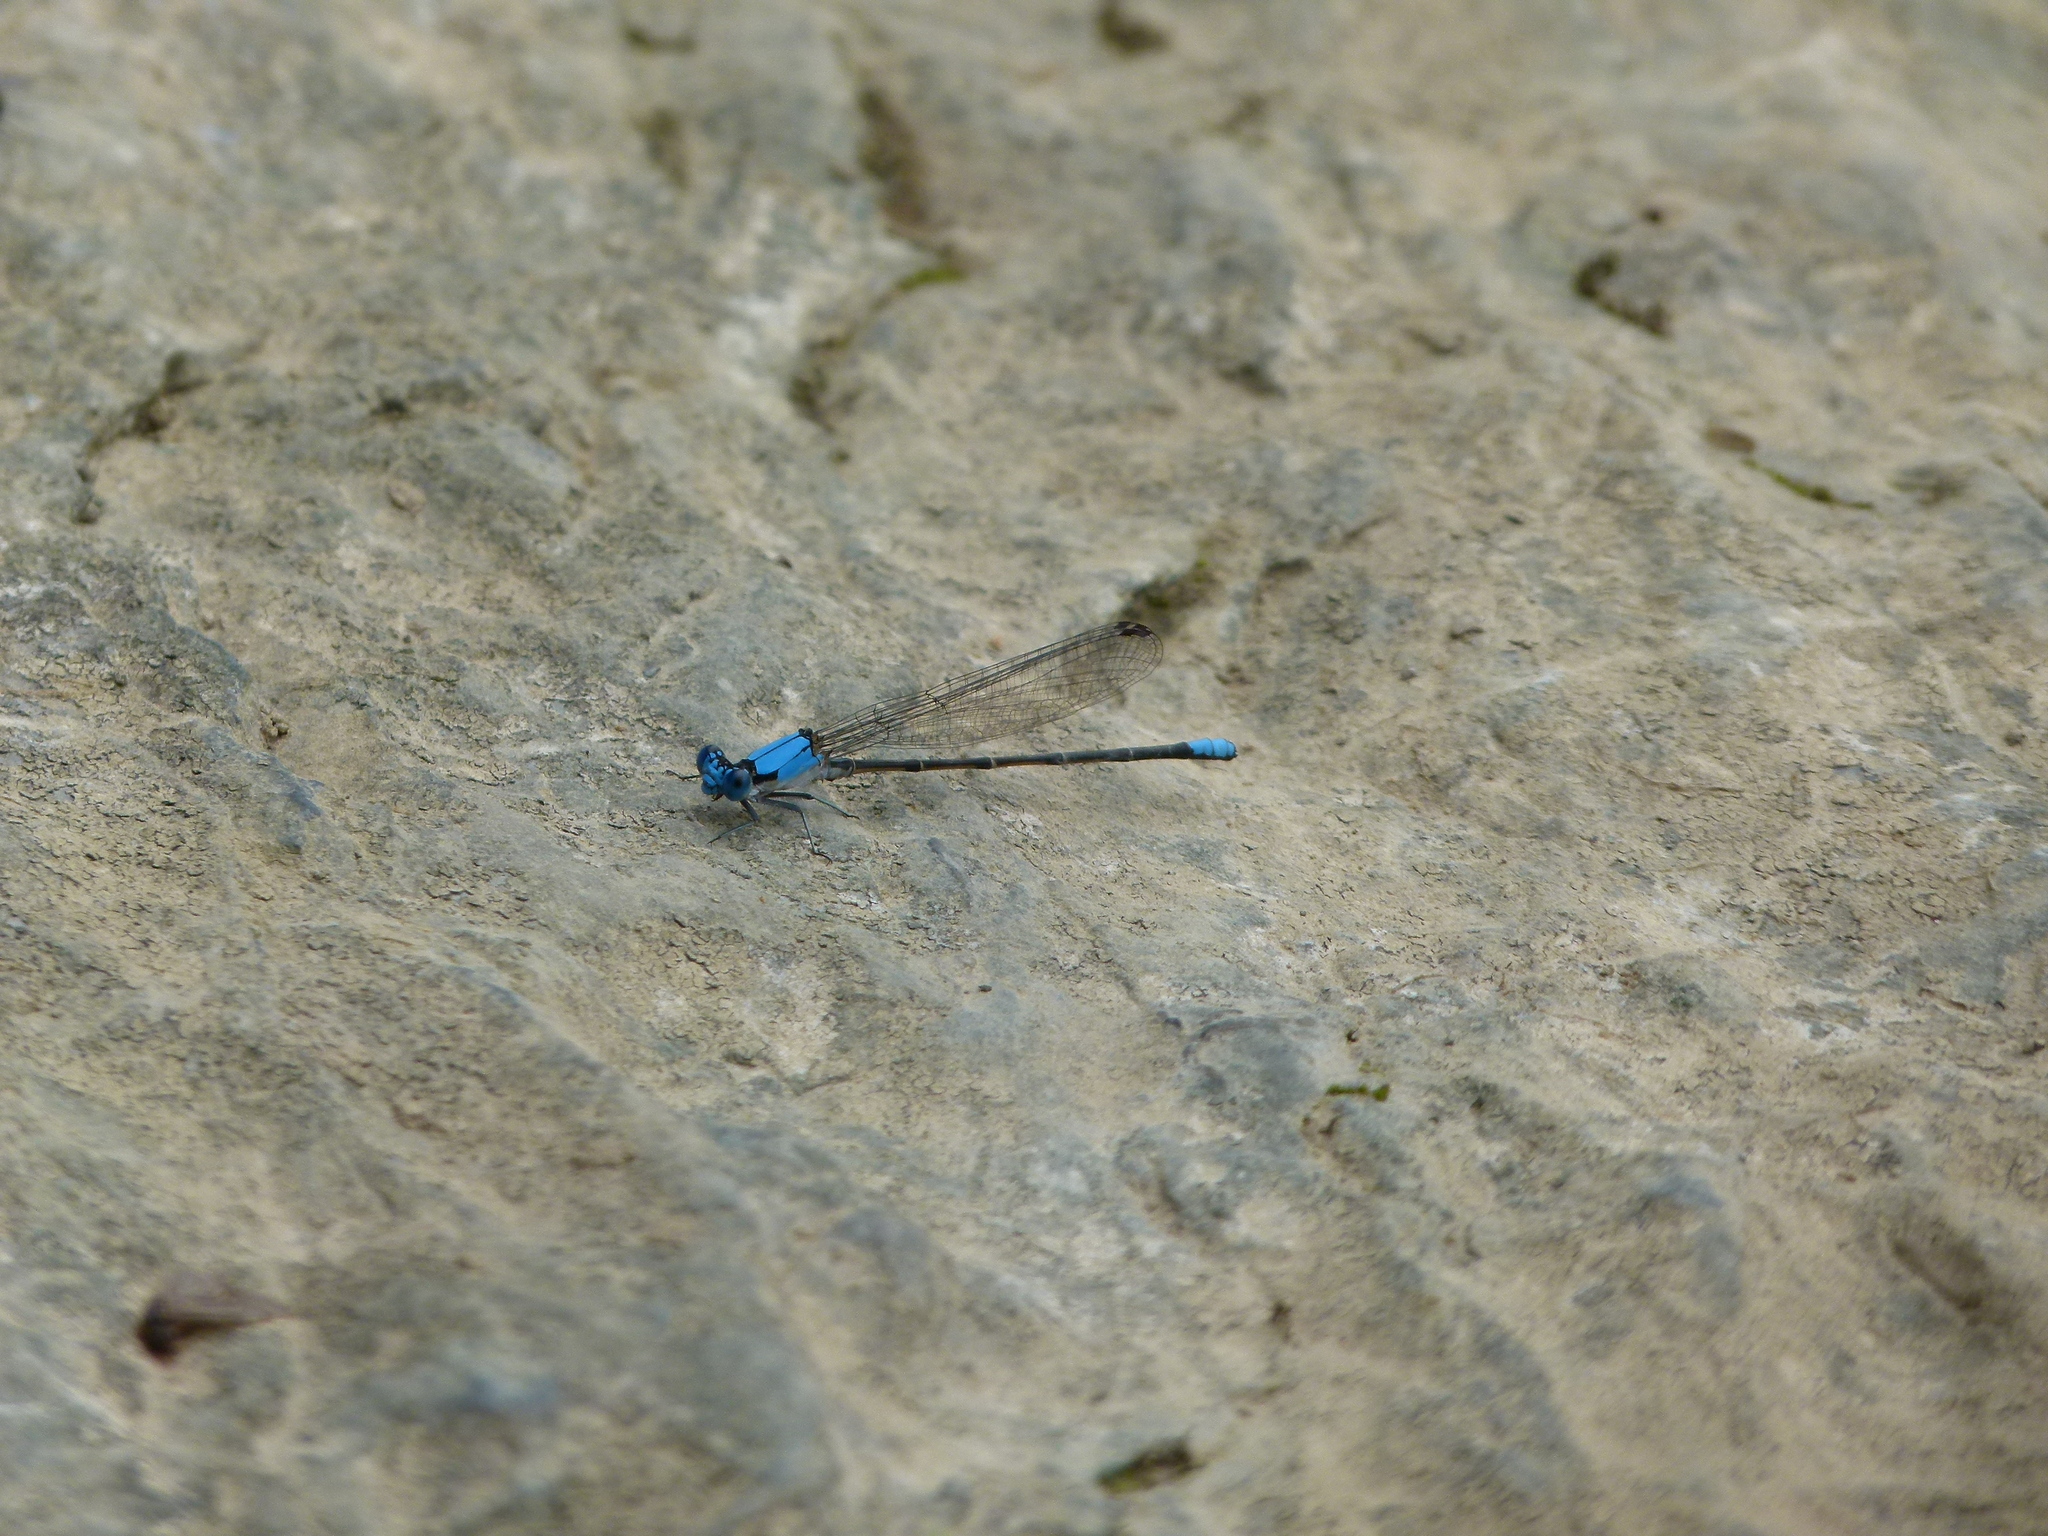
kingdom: Animalia
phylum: Arthropoda
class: Insecta
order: Odonata
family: Coenagrionidae
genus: Argia
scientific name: Argia apicalis
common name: Blue-fronted dancer
